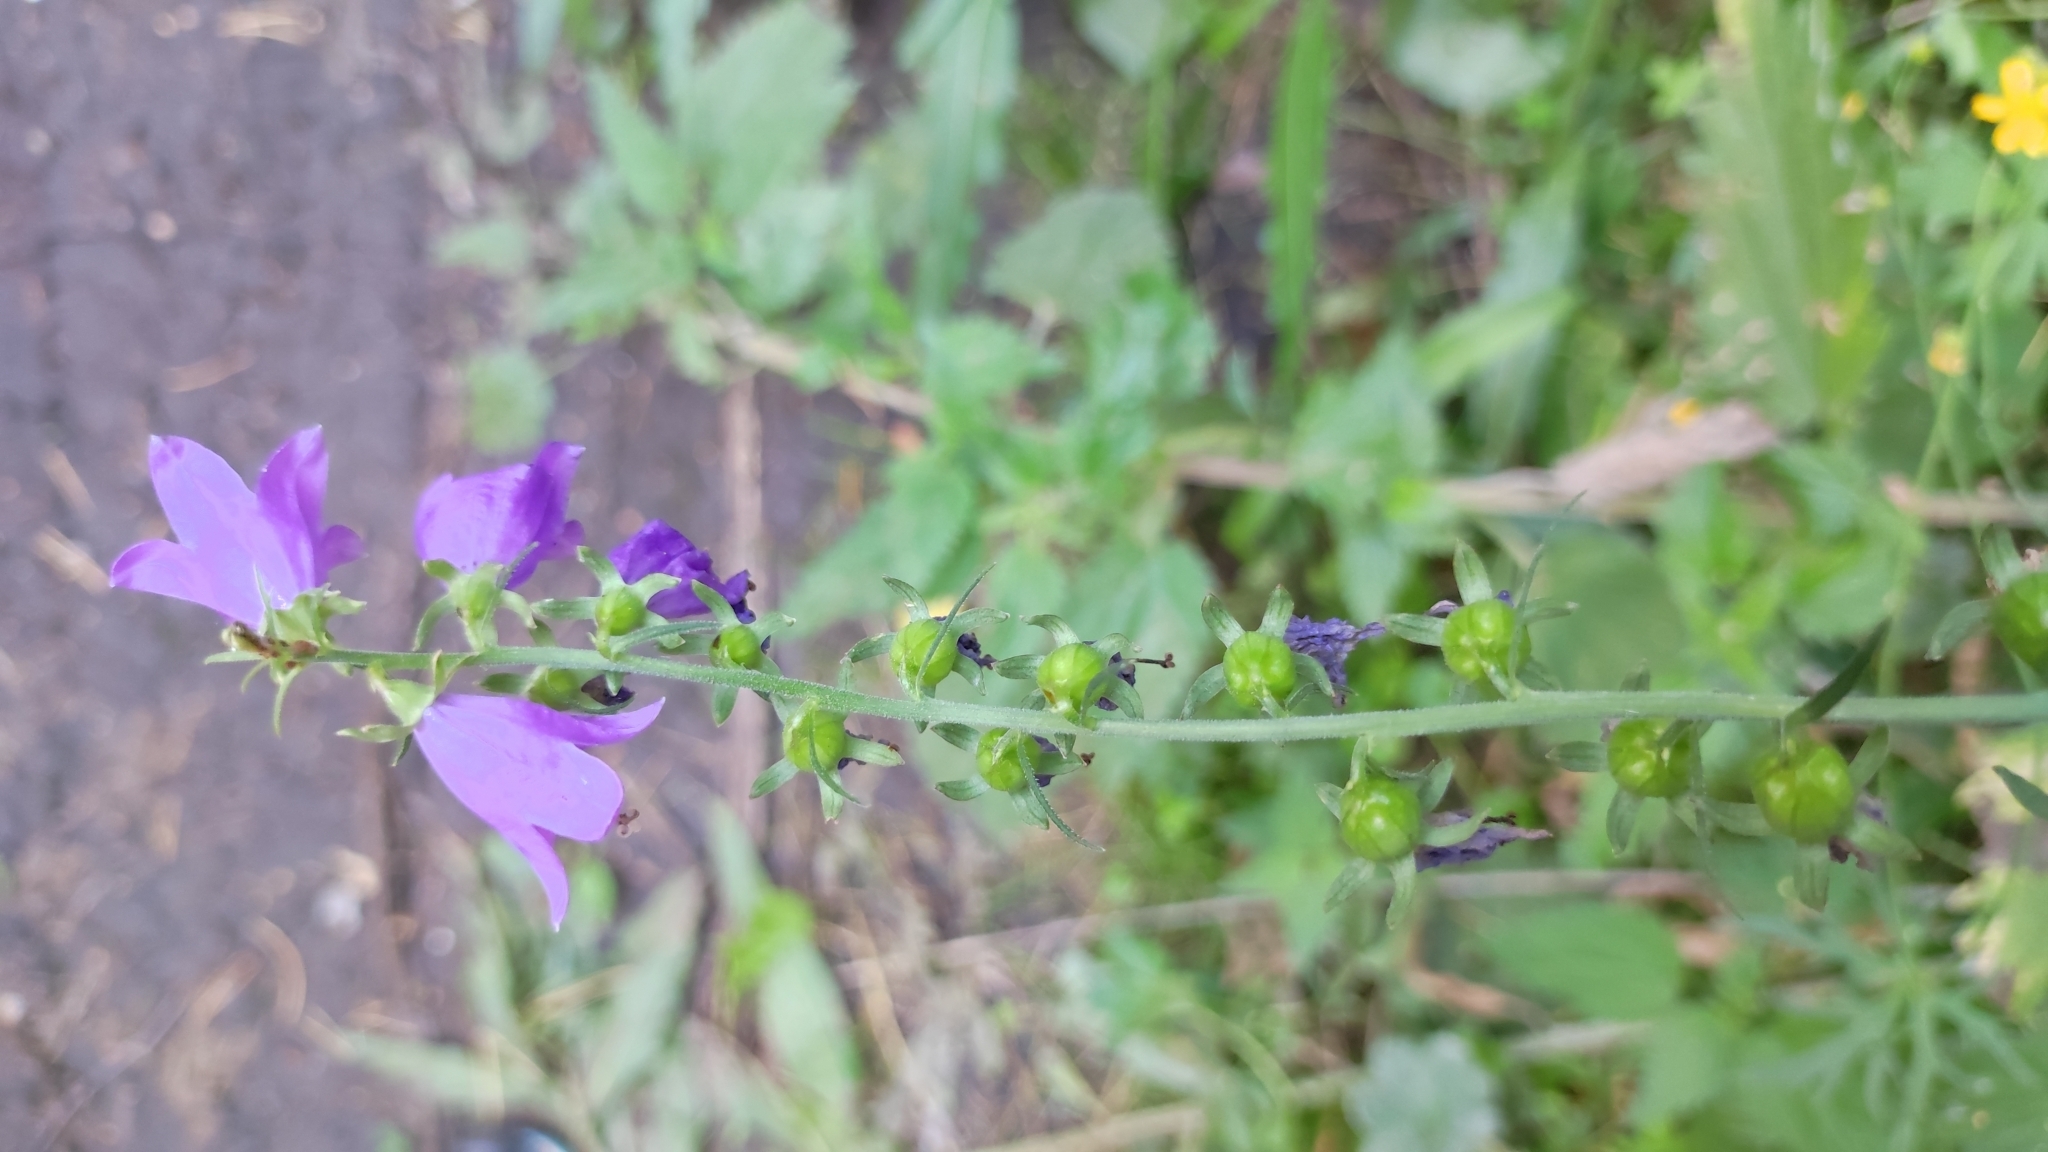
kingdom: Plantae
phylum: Tracheophyta
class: Magnoliopsida
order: Asterales
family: Campanulaceae
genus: Campanula
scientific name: Campanula rapunculoides
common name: Creeping bellflower
